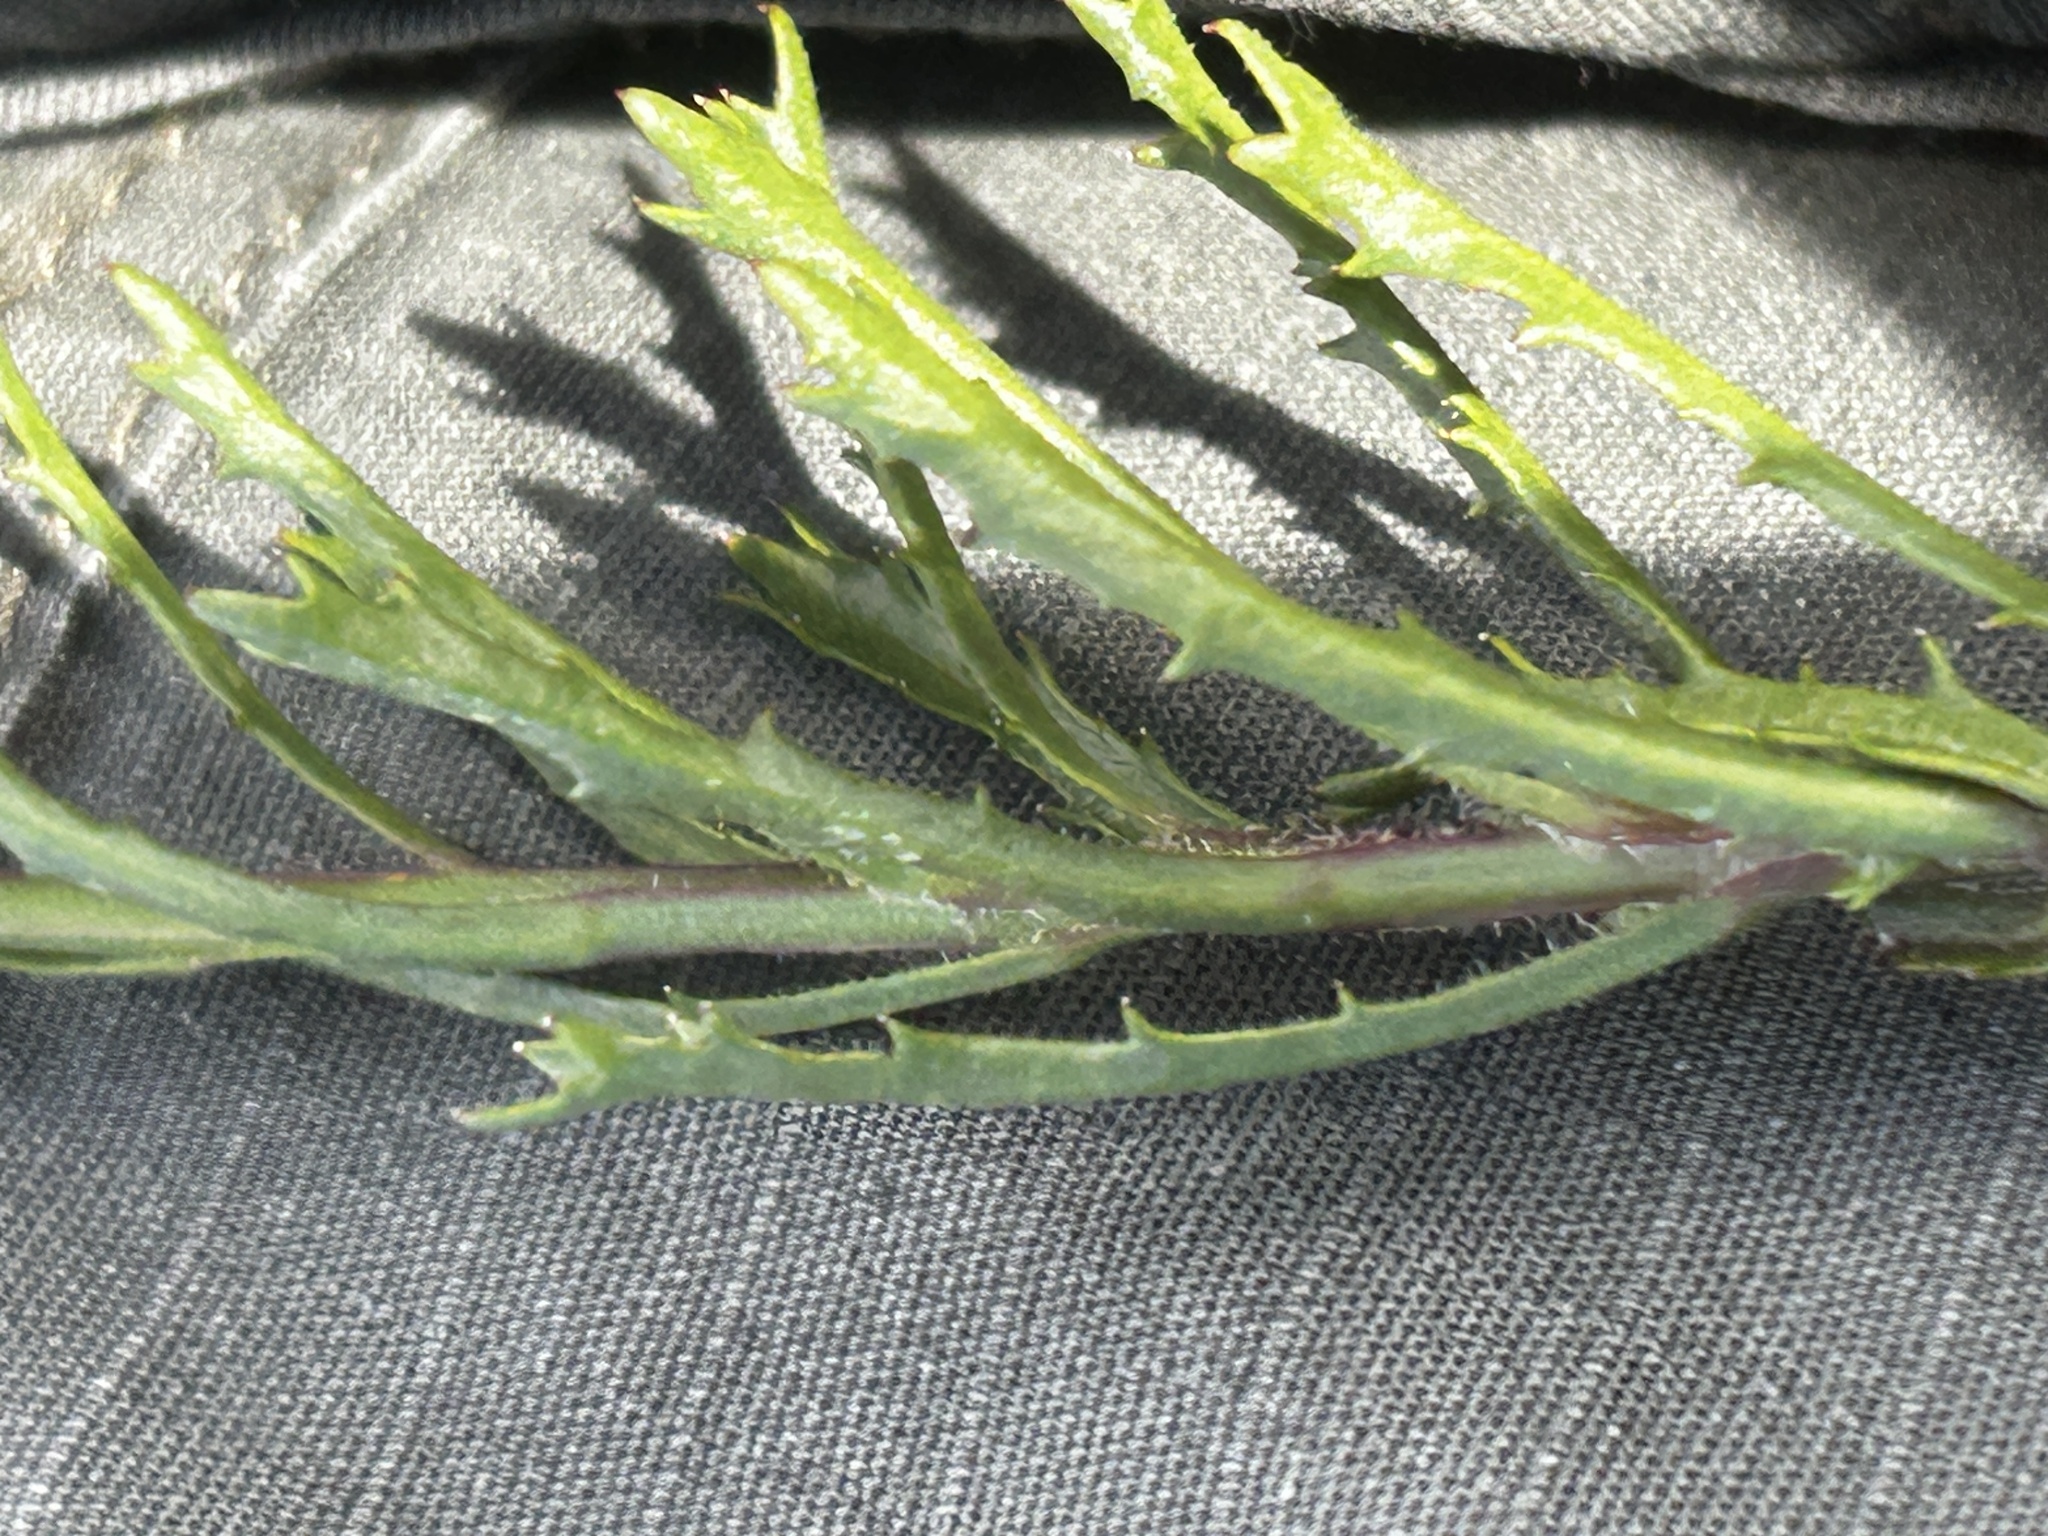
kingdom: Plantae
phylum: Tracheophyta
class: Magnoliopsida
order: Asterales
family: Campanulaceae
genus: Lobelia
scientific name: Lobelia valida
